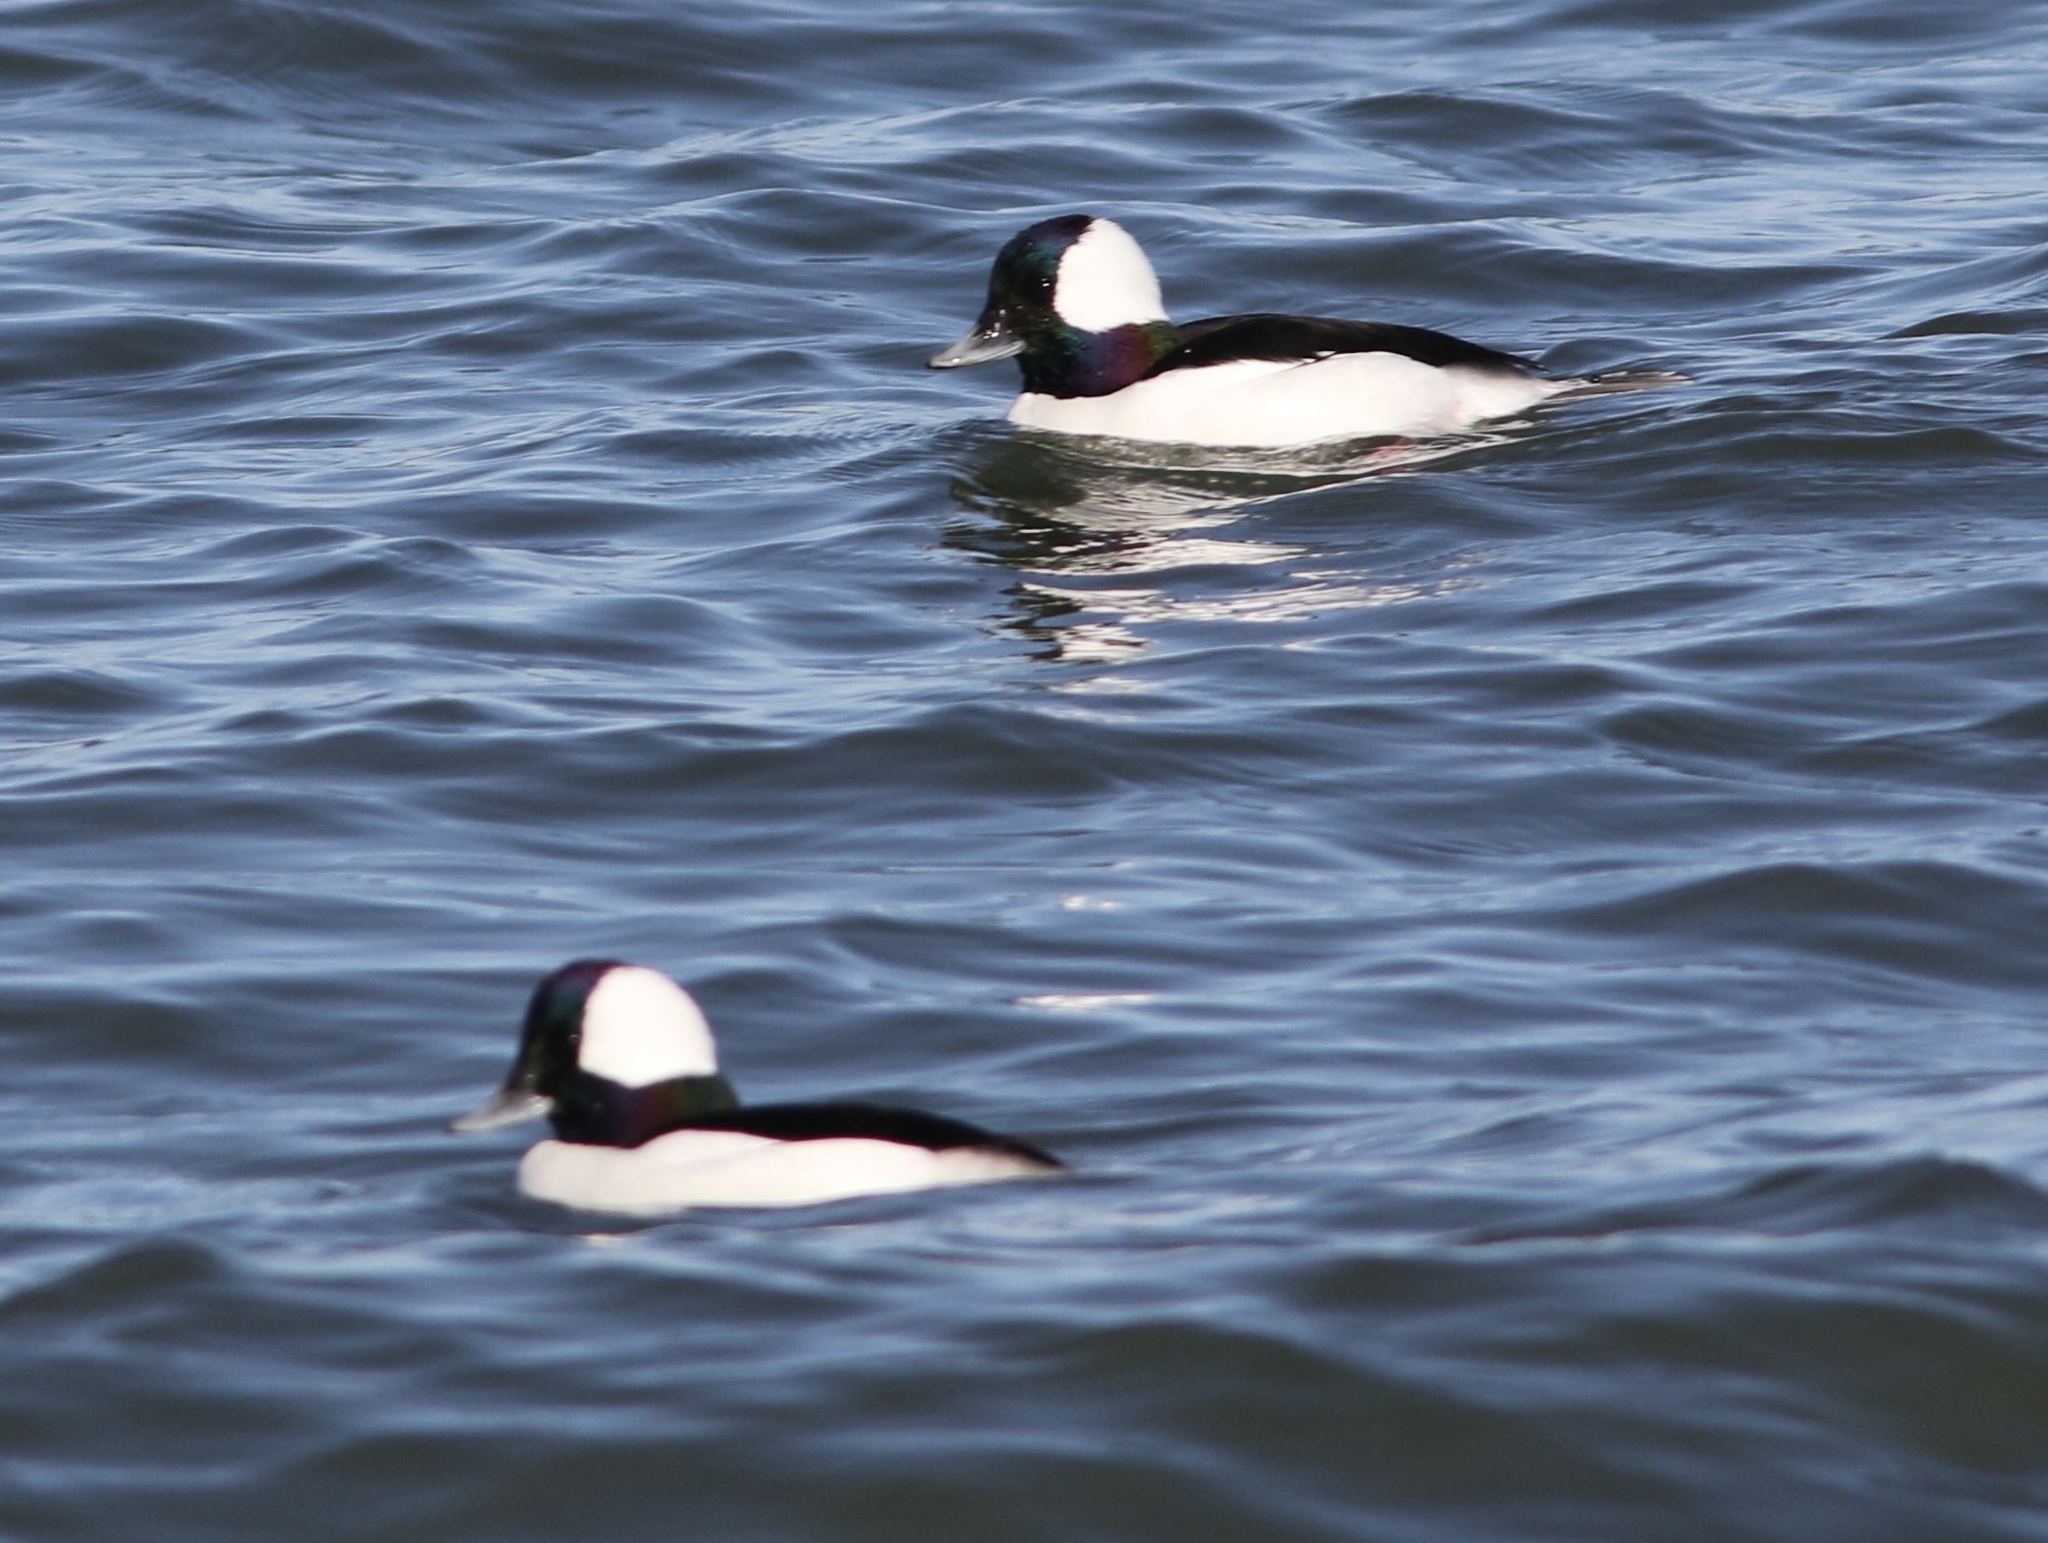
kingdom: Animalia
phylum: Chordata
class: Aves
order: Anseriformes
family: Anatidae
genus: Bucephala
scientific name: Bucephala albeola
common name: Bufflehead
